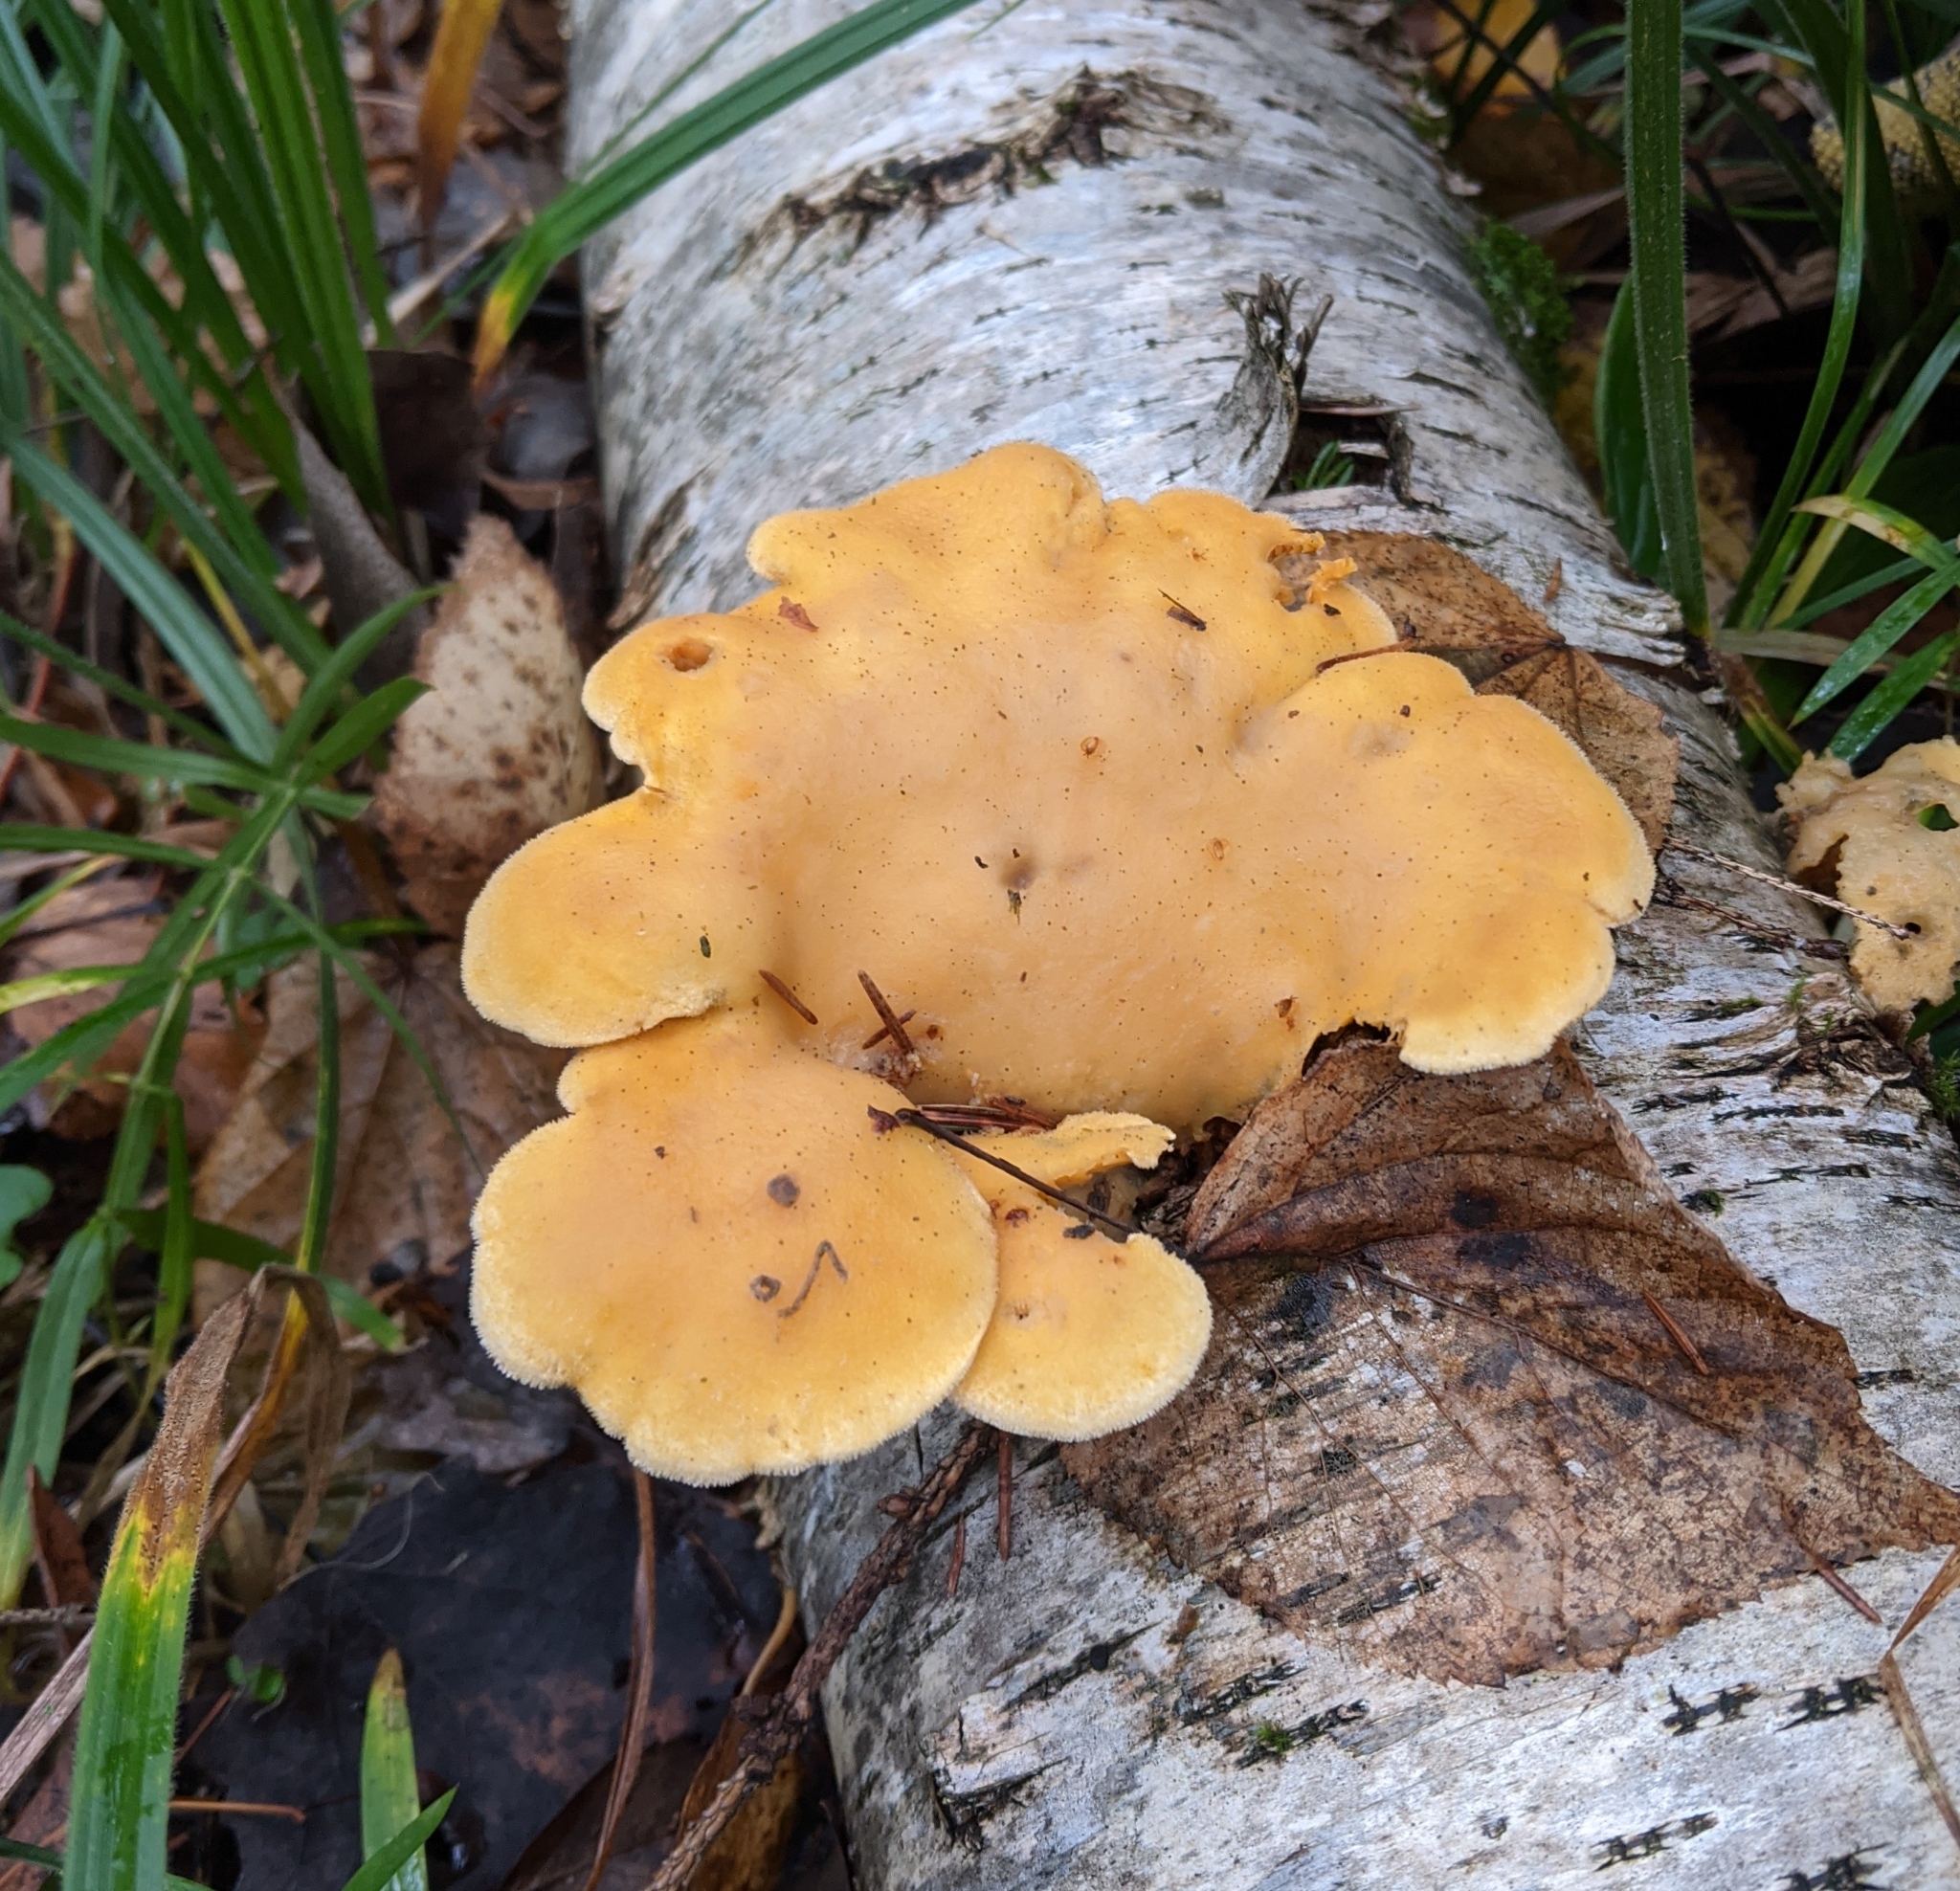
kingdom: Fungi
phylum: Basidiomycota
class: Agaricomycetes
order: Agaricales
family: Phyllotopsidaceae
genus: Phyllotopsis
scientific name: Phyllotopsis nidulans
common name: Orange mock oyster
